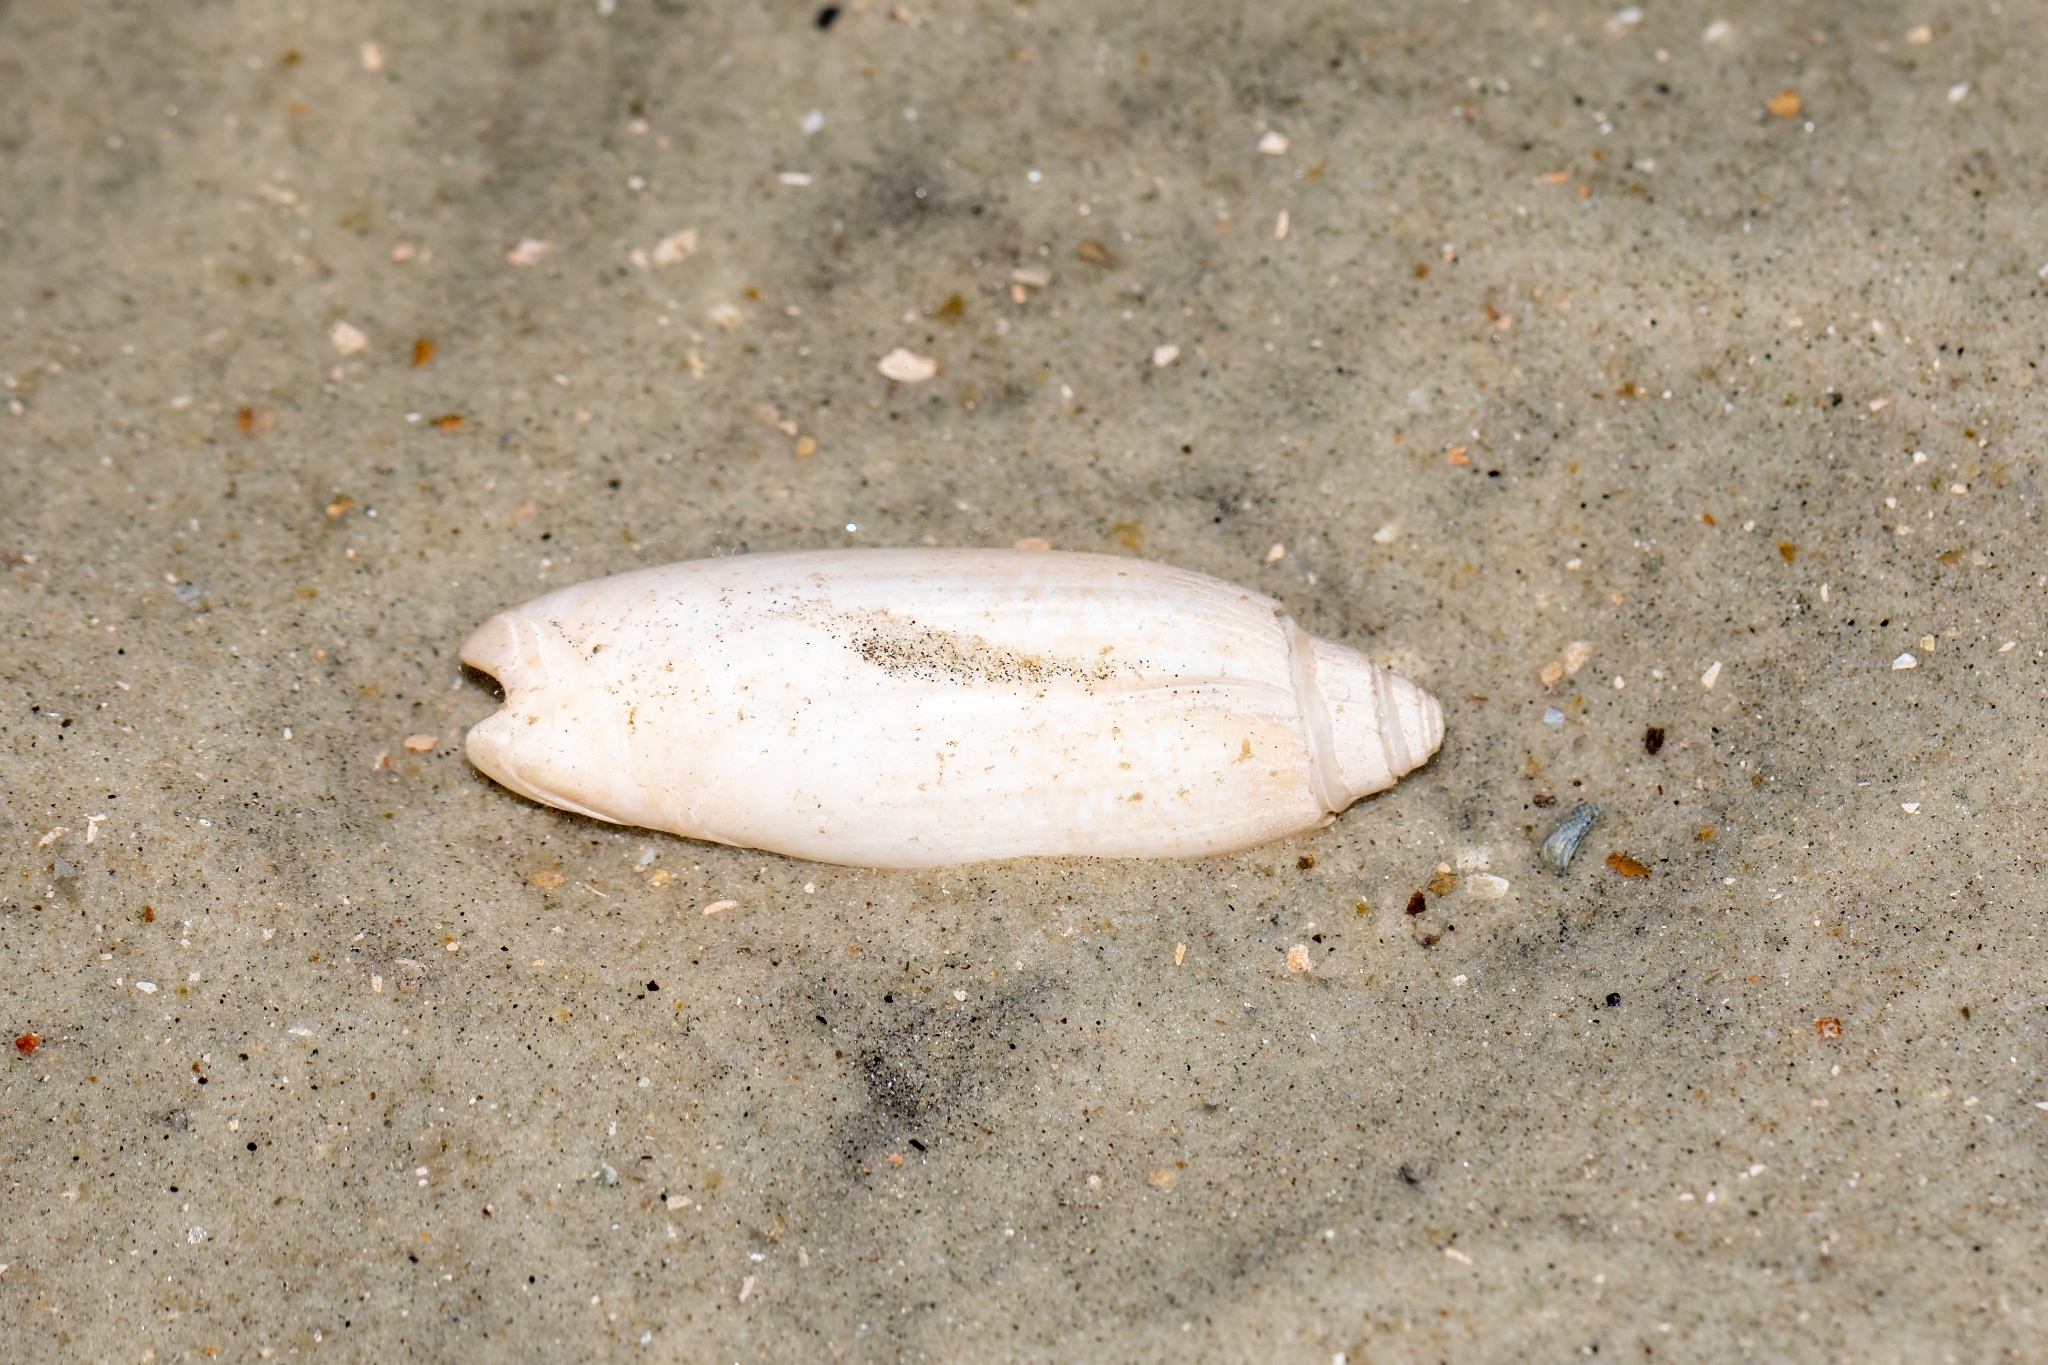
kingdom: Animalia
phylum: Mollusca
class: Gastropoda
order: Neogastropoda
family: Olividae
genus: Oliva
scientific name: Oliva sayana
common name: Lettered olive
